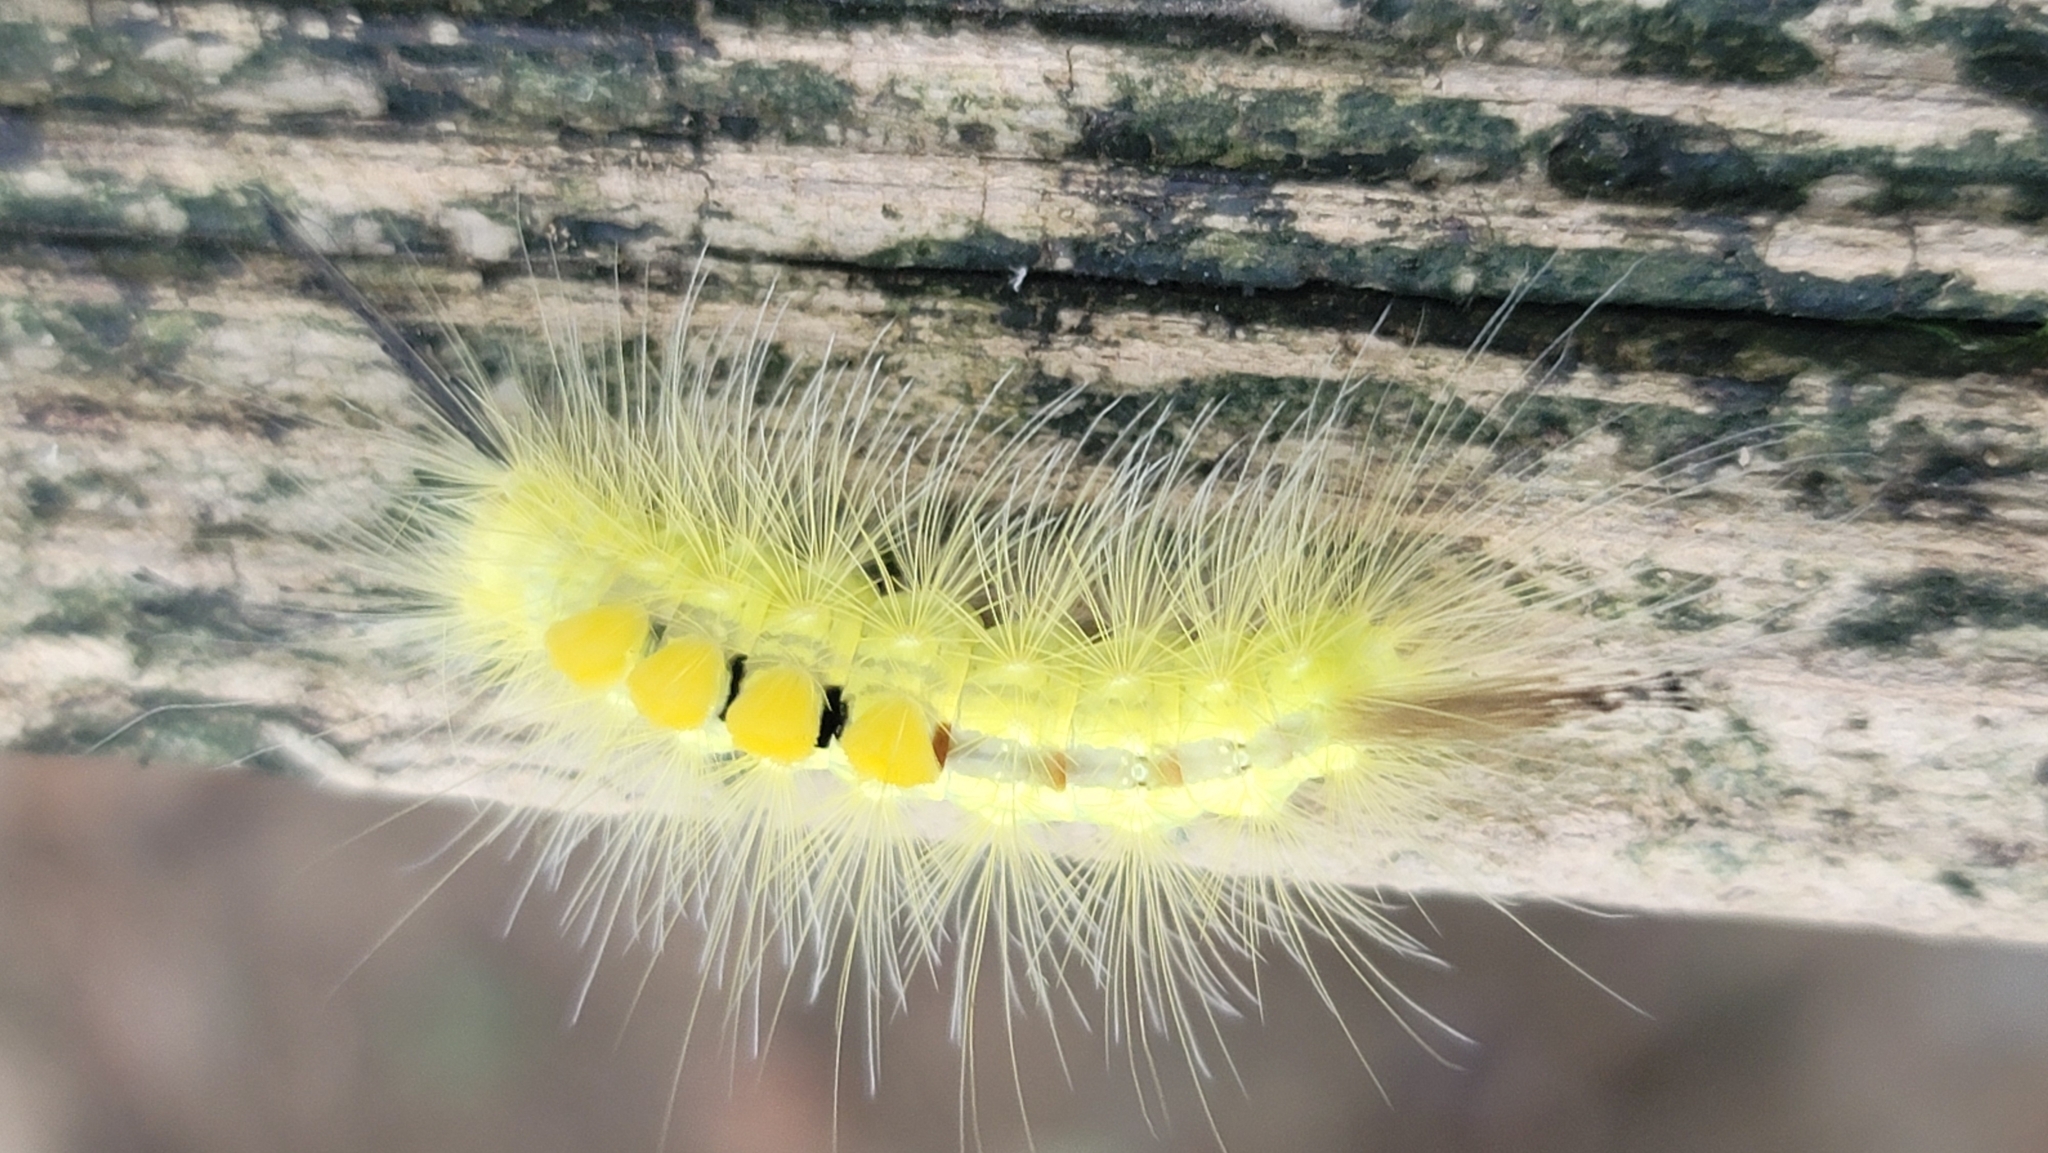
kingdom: Animalia
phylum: Arthropoda
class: Insecta
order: Lepidoptera
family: Erebidae
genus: Orgyia
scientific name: Orgyia definita
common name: Definite tussock moth
